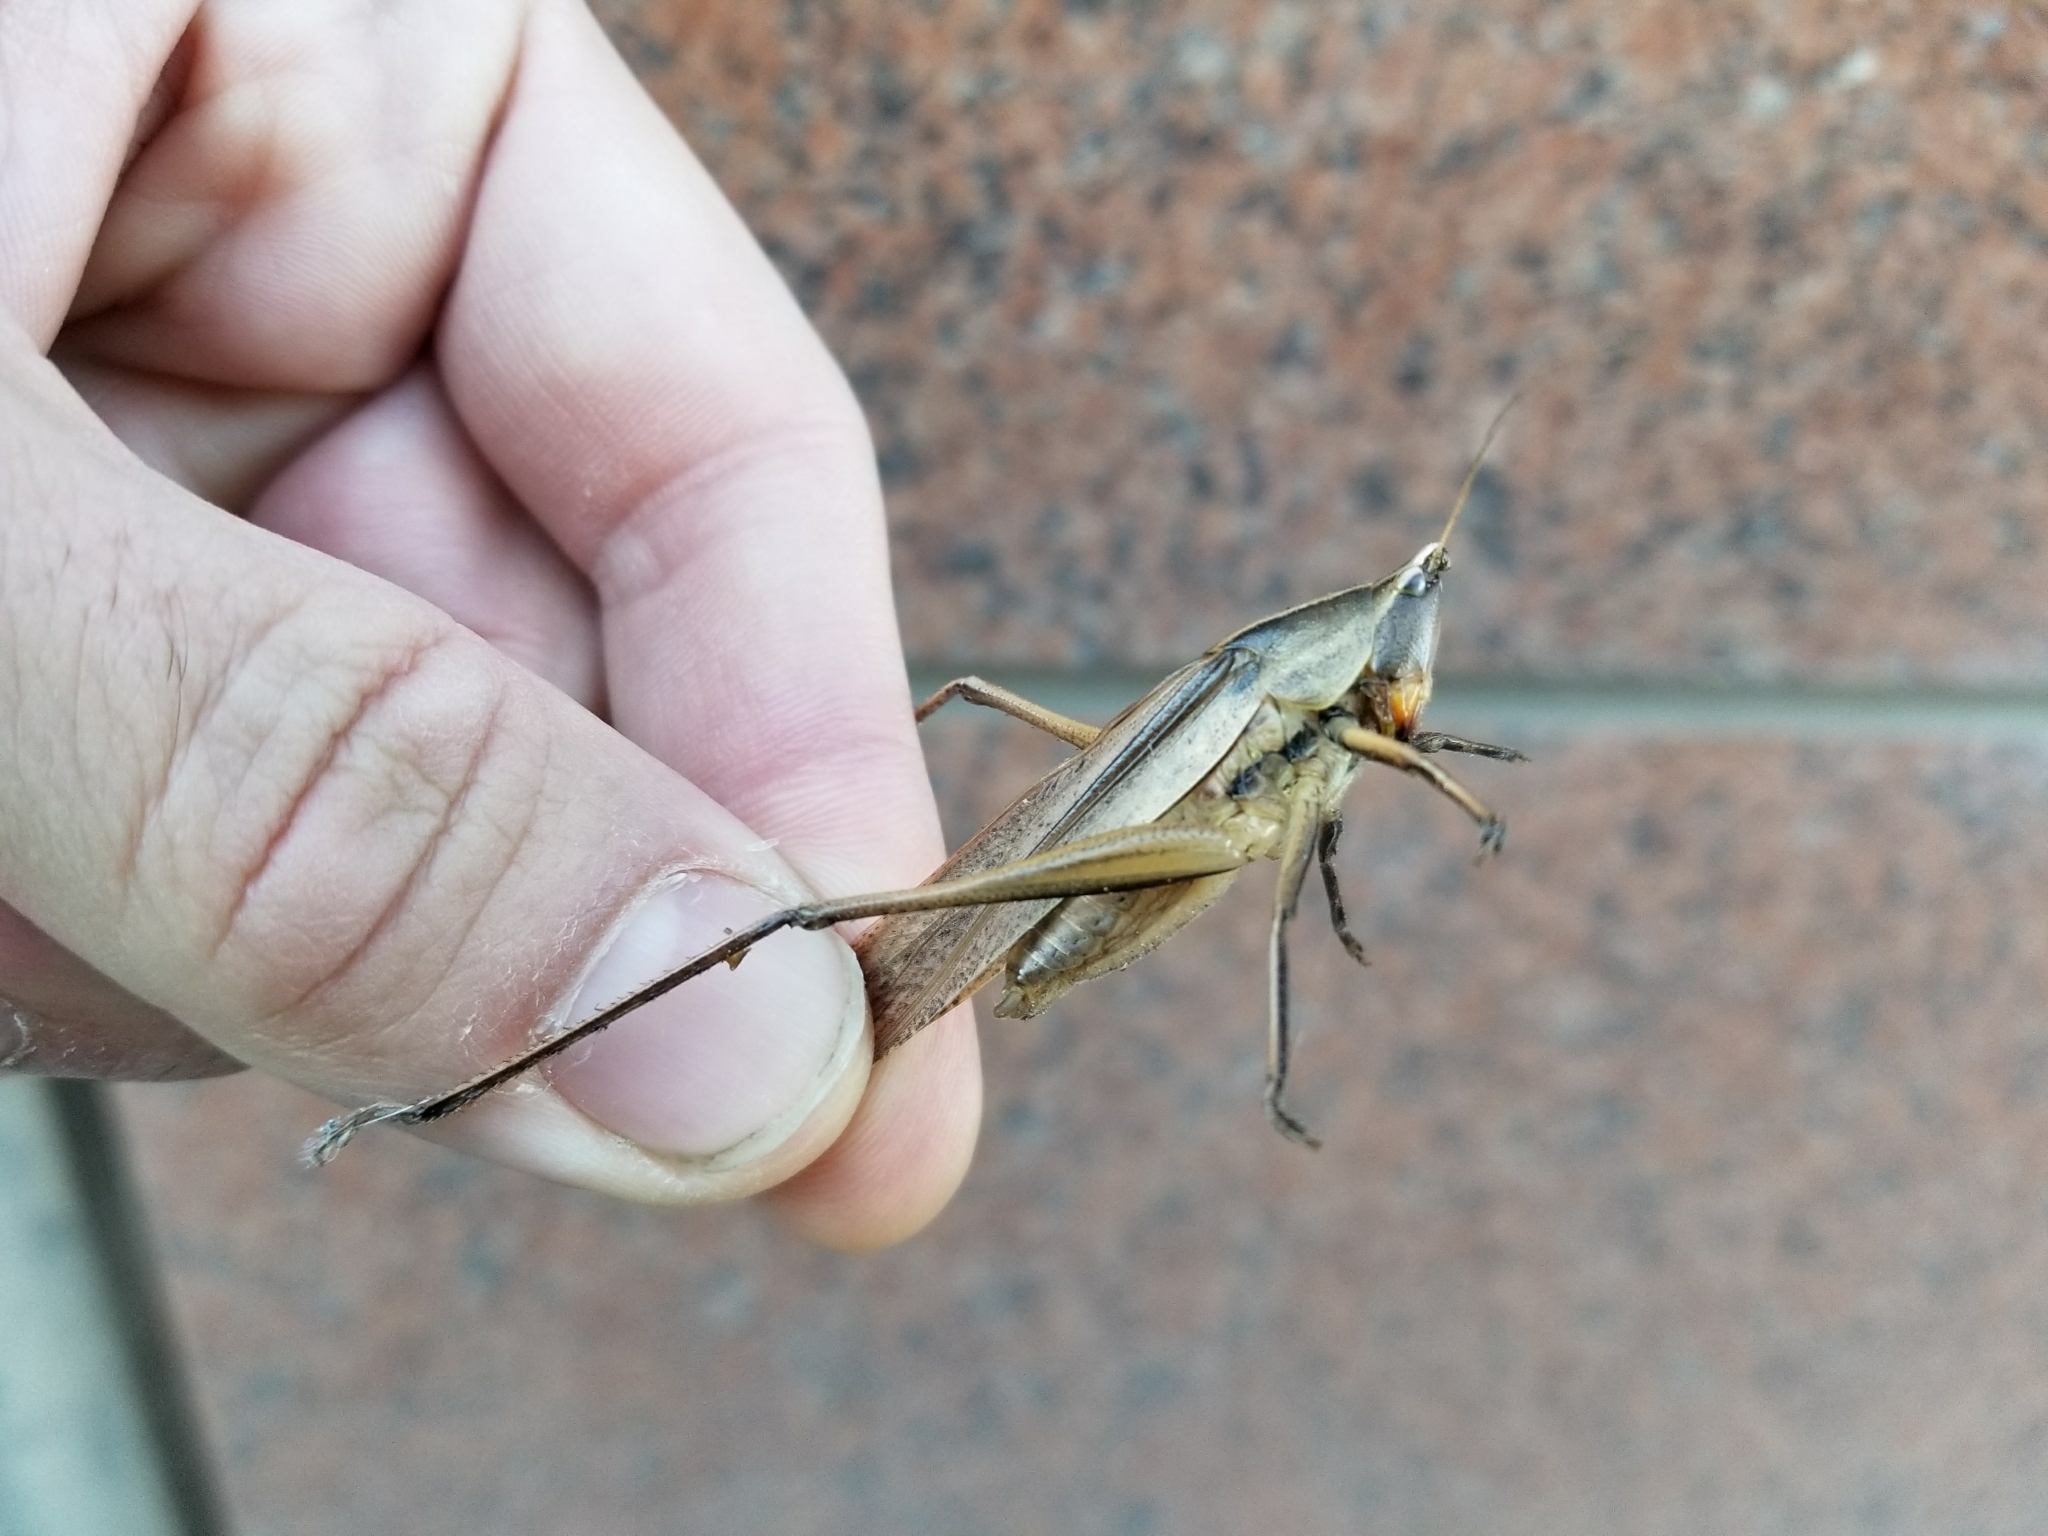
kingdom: Animalia
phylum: Arthropoda
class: Insecta
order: Orthoptera
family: Tettigoniidae
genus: Neoconocephalus
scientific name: Neoconocephalus triops
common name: Broad-tipped conehead
